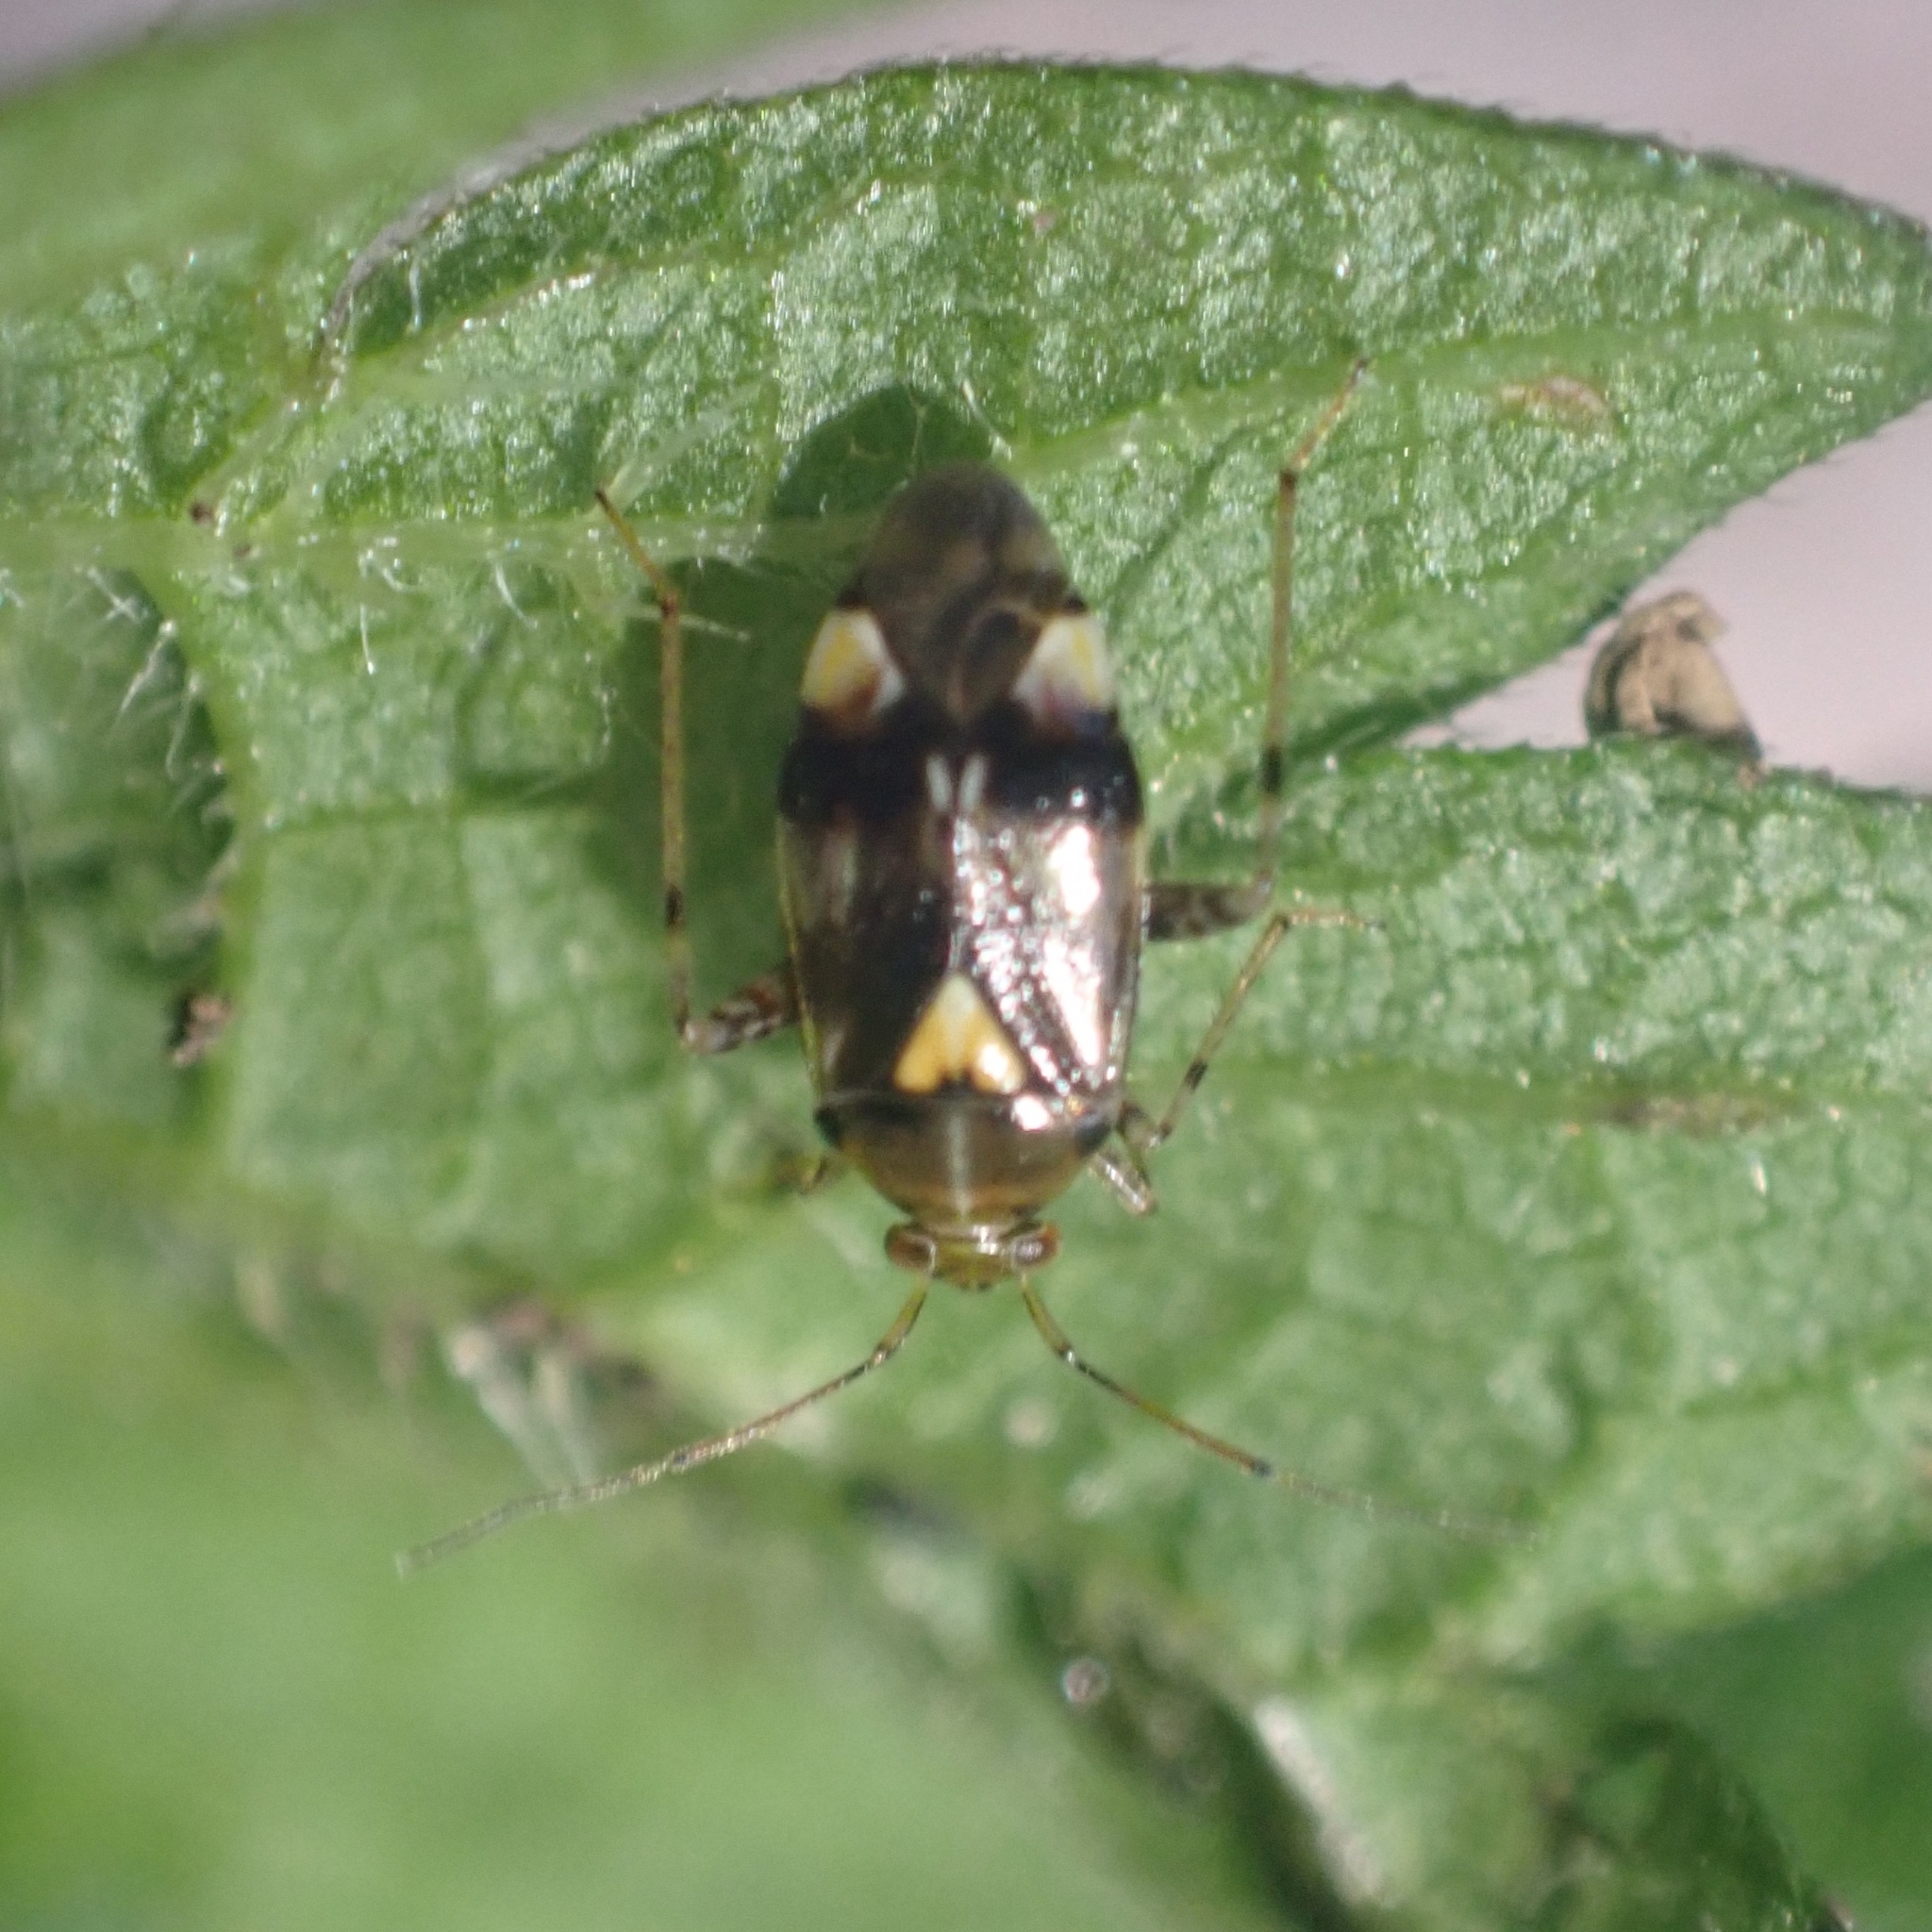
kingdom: Animalia
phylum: Arthropoda
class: Insecta
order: Hemiptera
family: Miridae
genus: Liocoris
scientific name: Liocoris tripustulatus
